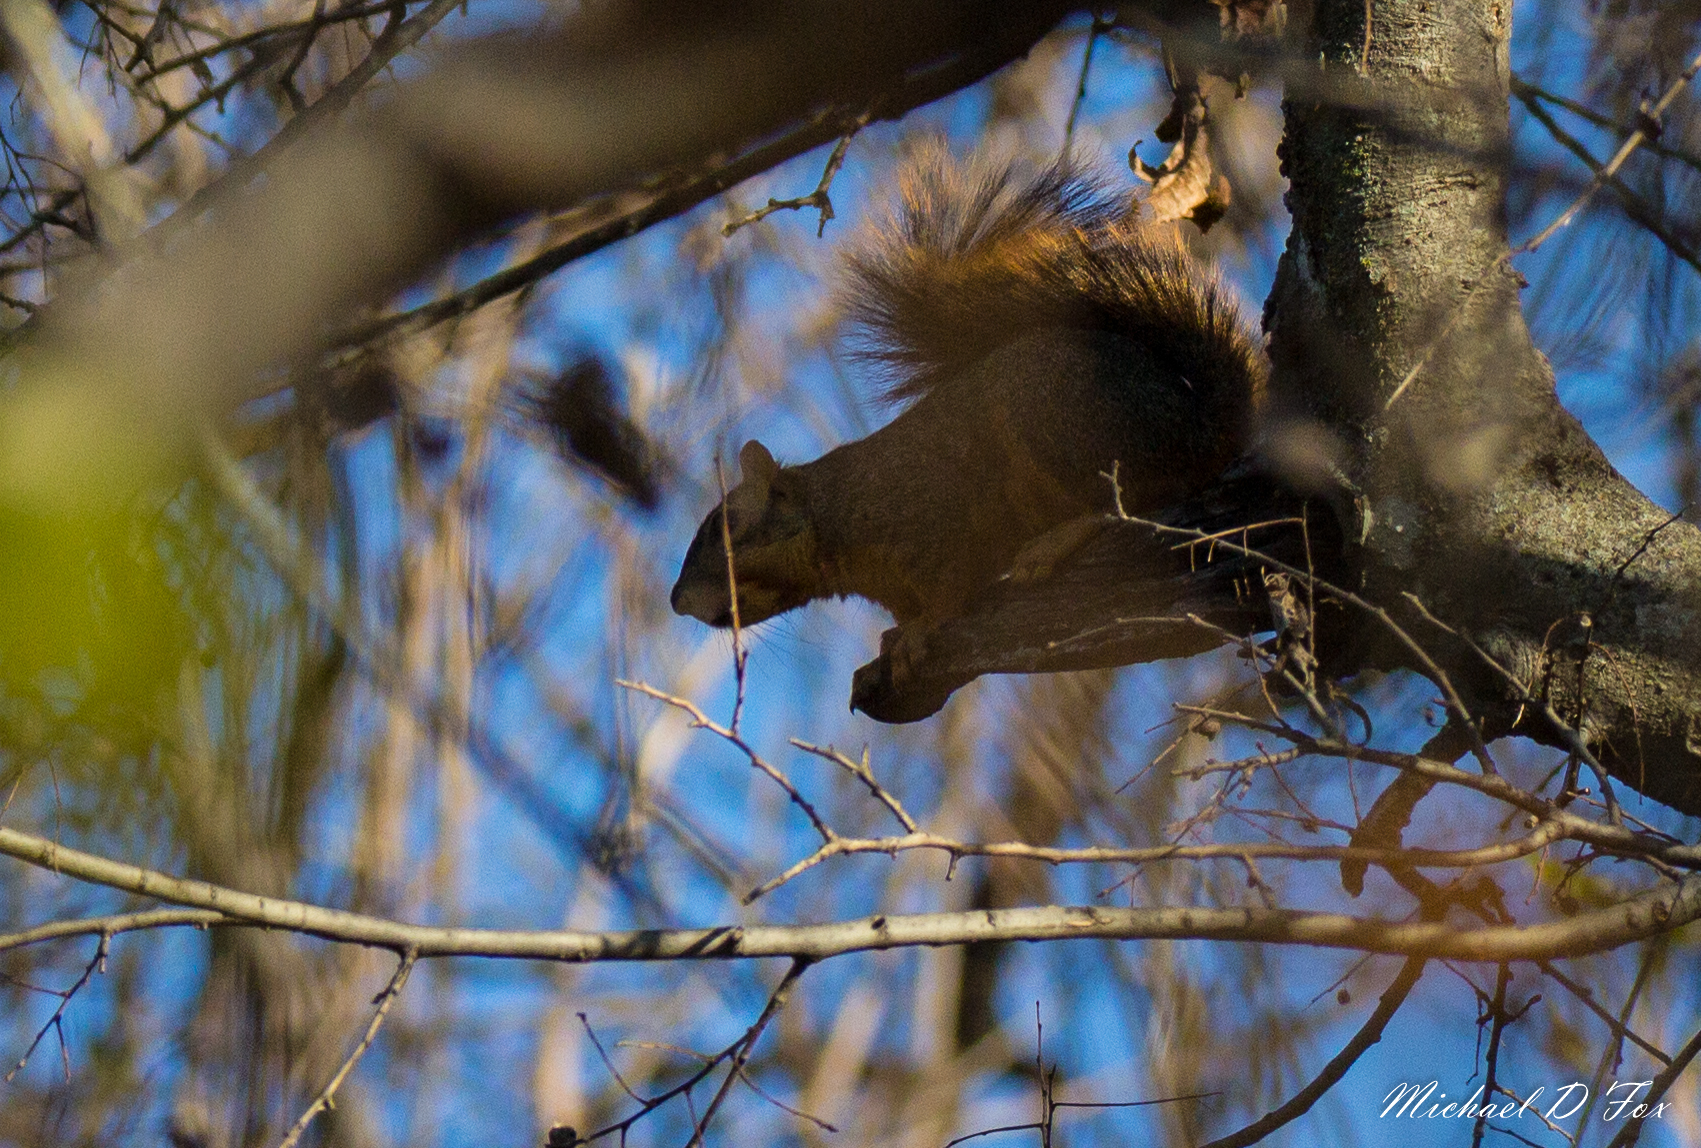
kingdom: Animalia
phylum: Chordata
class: Mammalia
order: Rodentia
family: Sciuridae
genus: Sciurus
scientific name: Sciurus niger
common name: Fox squirrel
